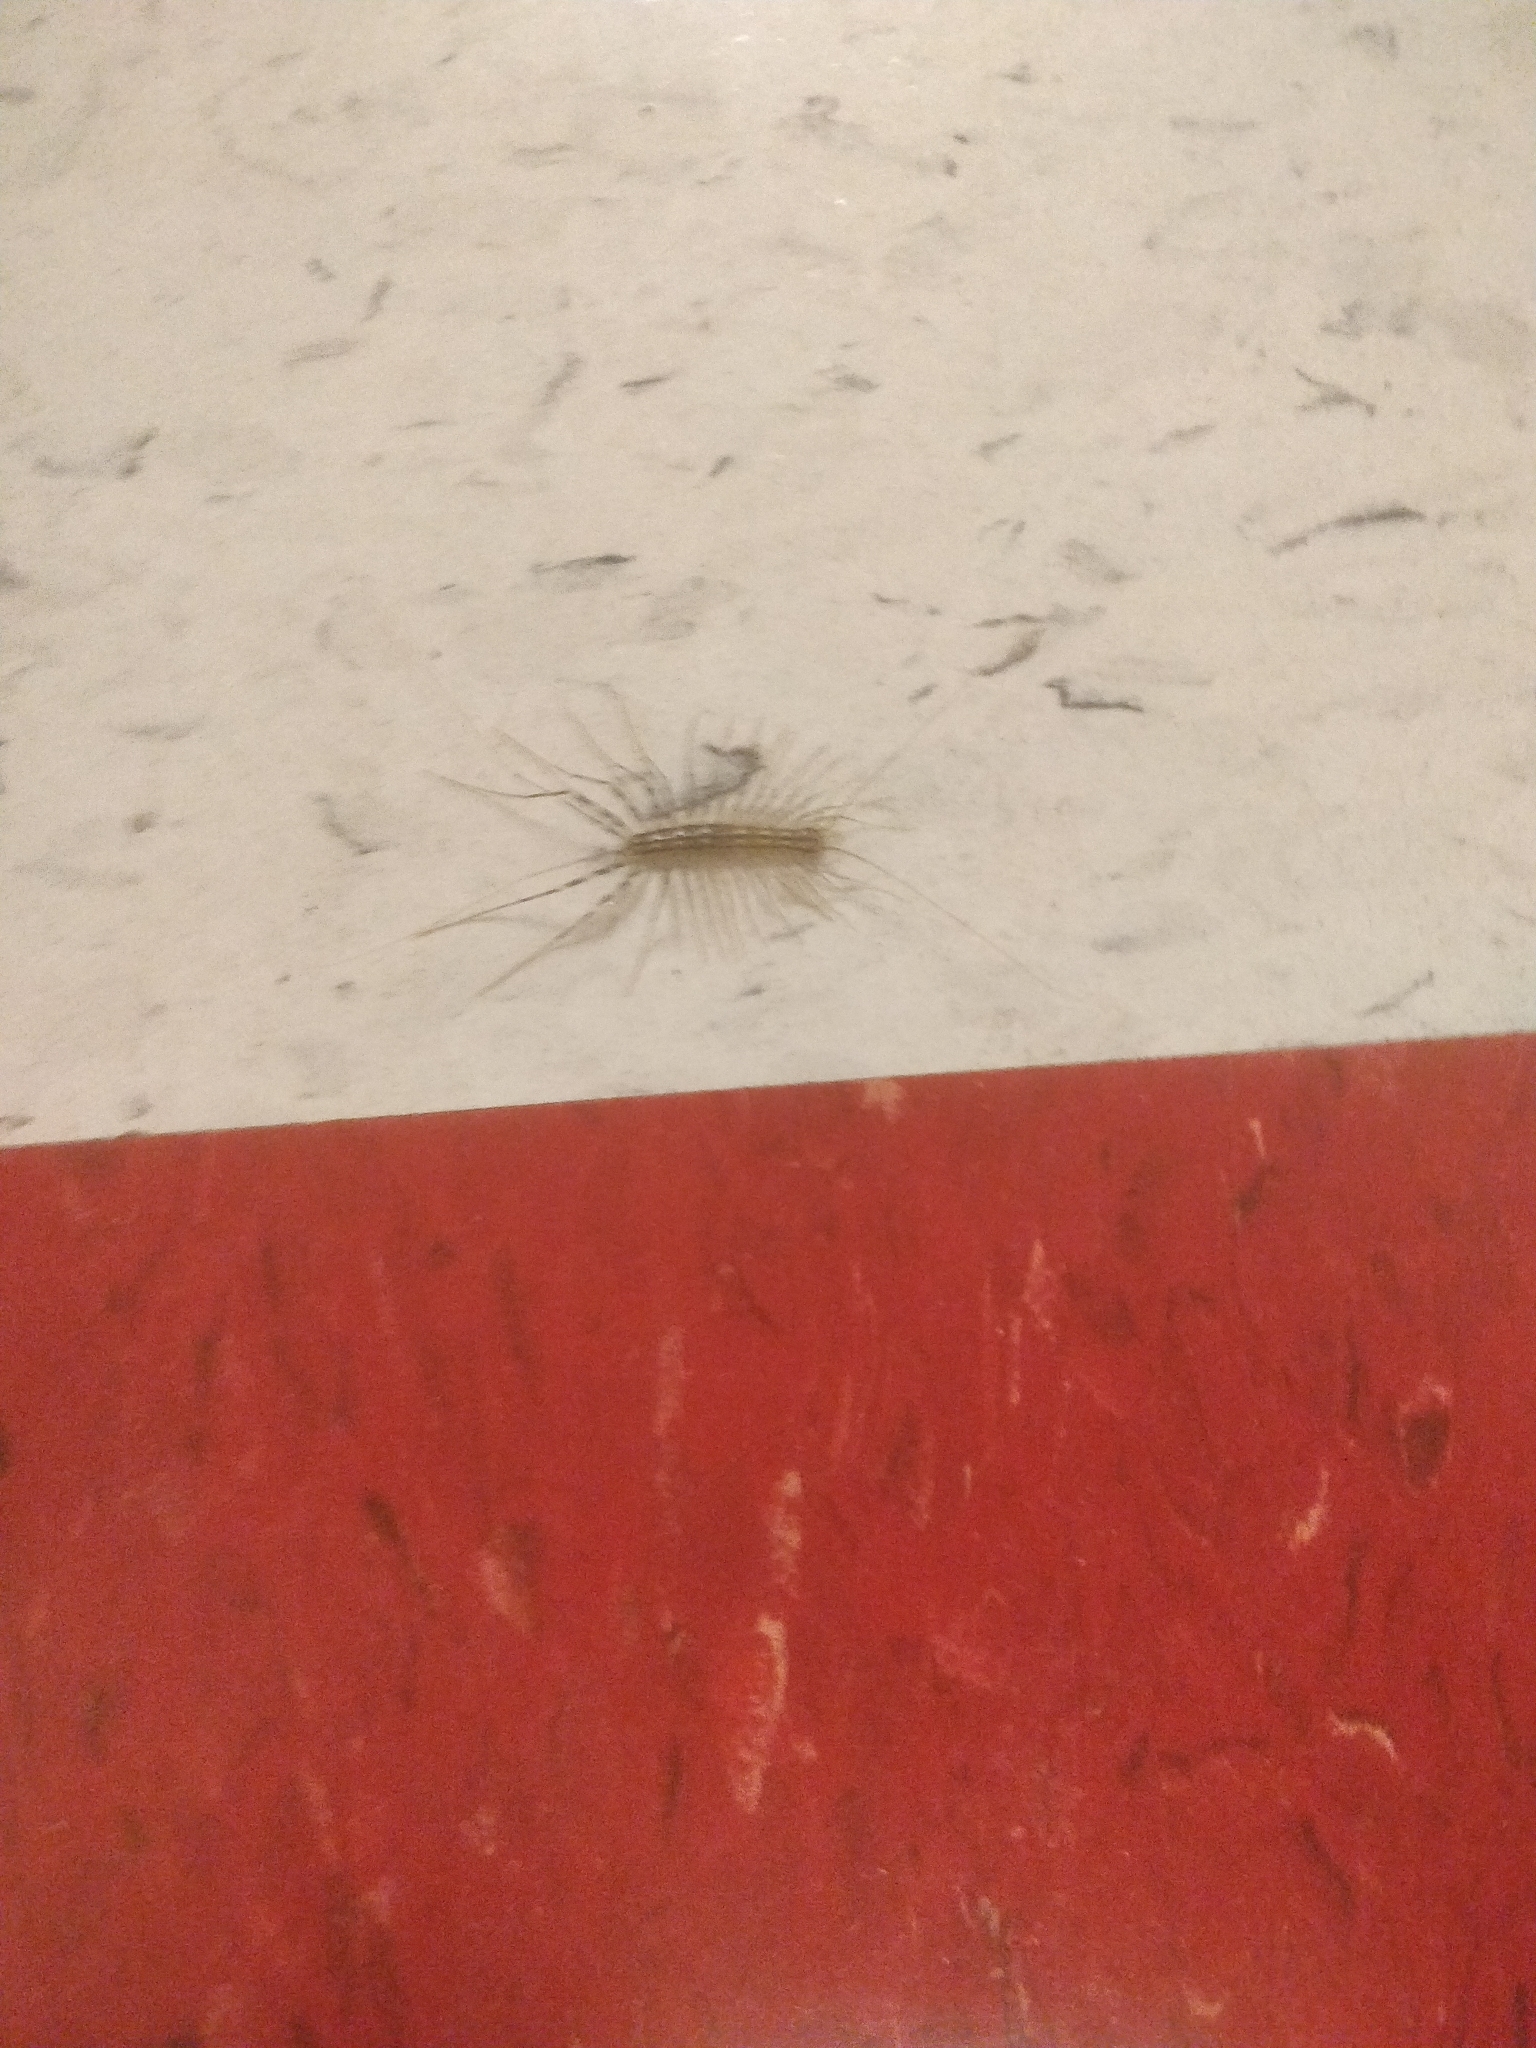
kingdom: Animalia
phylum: Arthropoda
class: Chilopoda
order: Scutigeromorpha
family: Scutigeridae
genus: Scutigera
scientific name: Scutigera coleoptrata
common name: House centipede
